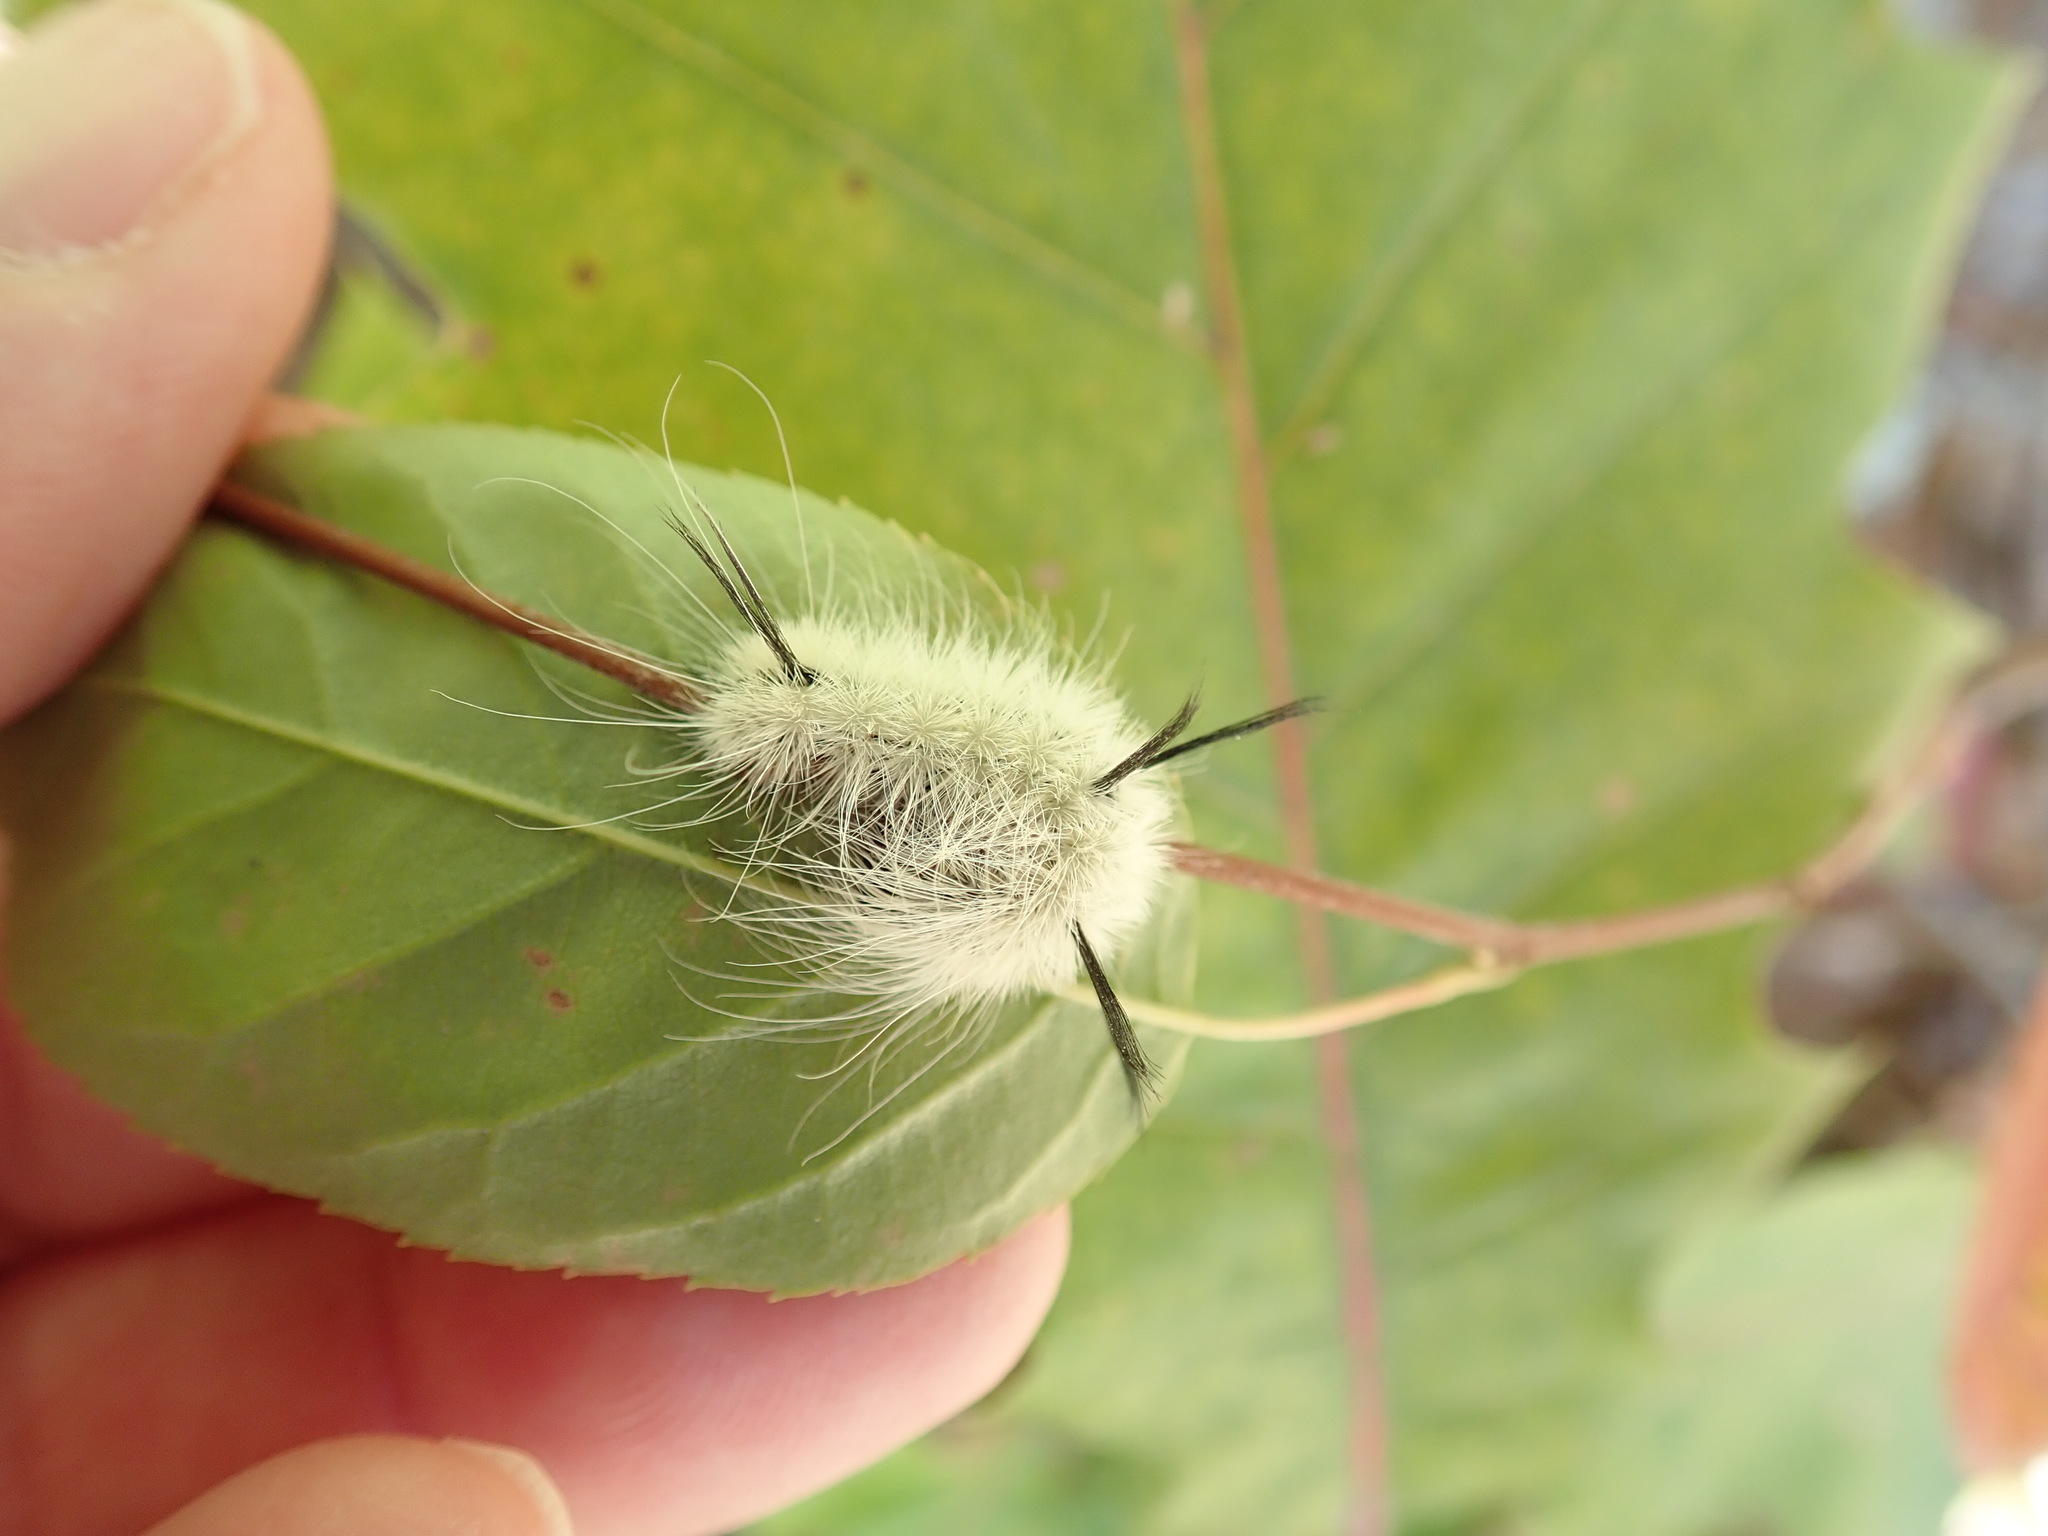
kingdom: Animalia
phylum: Arthropoda
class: Insecta
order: Lepidoptera
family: Noctuidae
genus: Acronicta
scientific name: Acronicta americana
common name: American dagger
